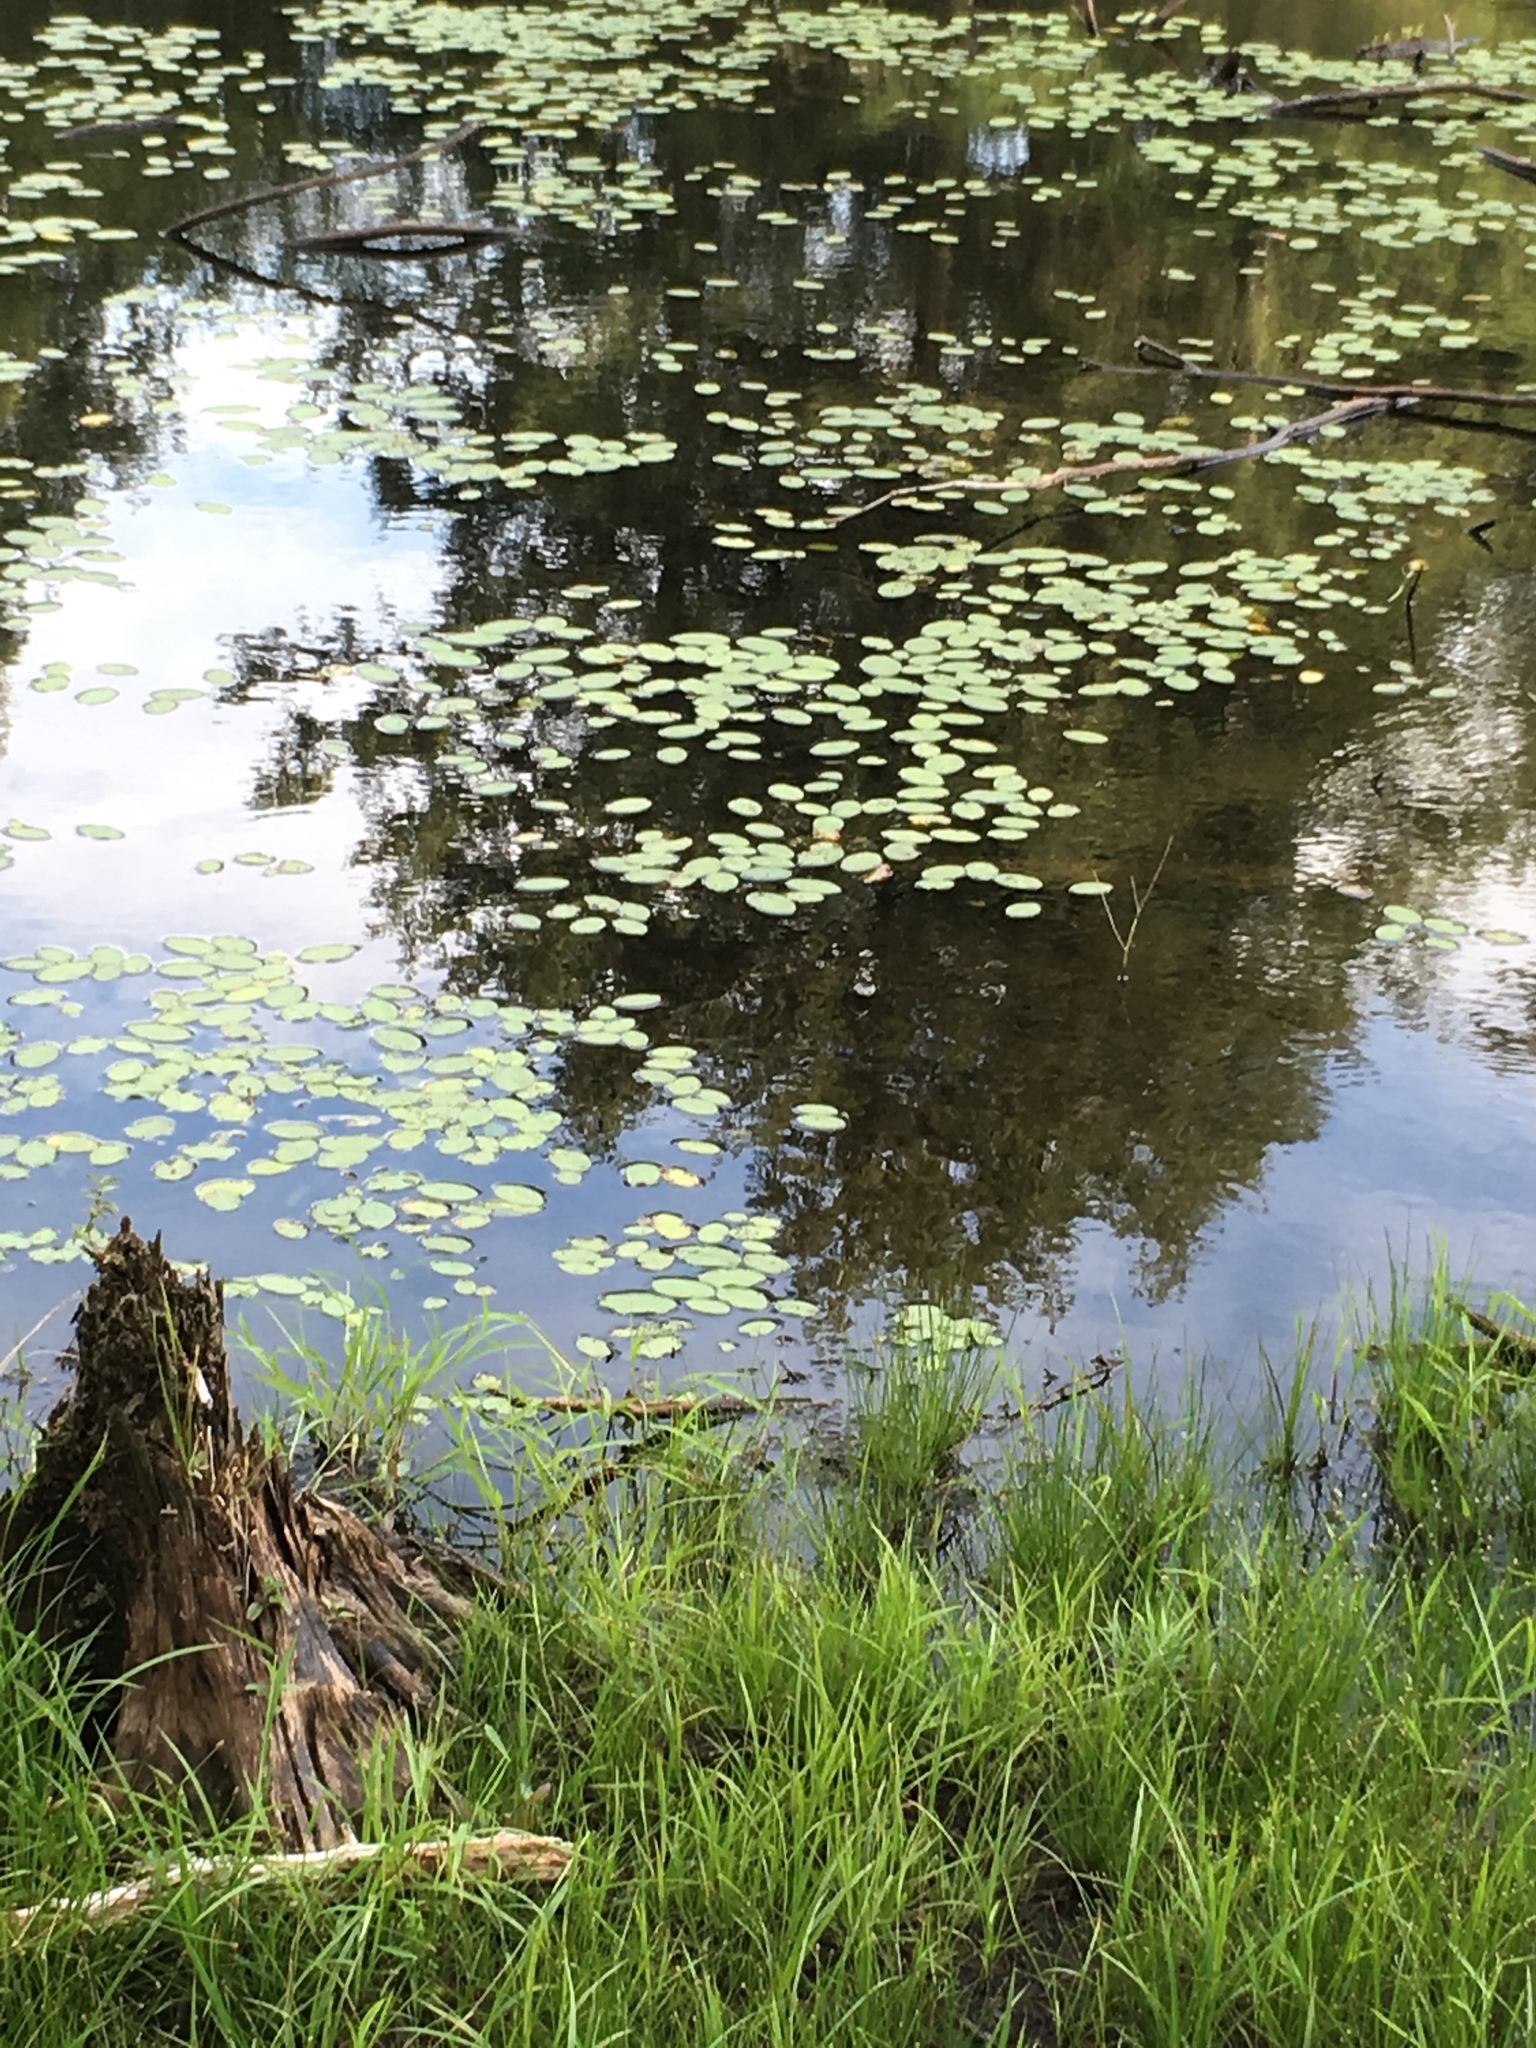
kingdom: Plantae
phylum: Tracheophyta
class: Magnoliopsida
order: Nymphaeales
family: Cabombaceae
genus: Brasenia
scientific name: Brasenia schreberi
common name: Water-shield
